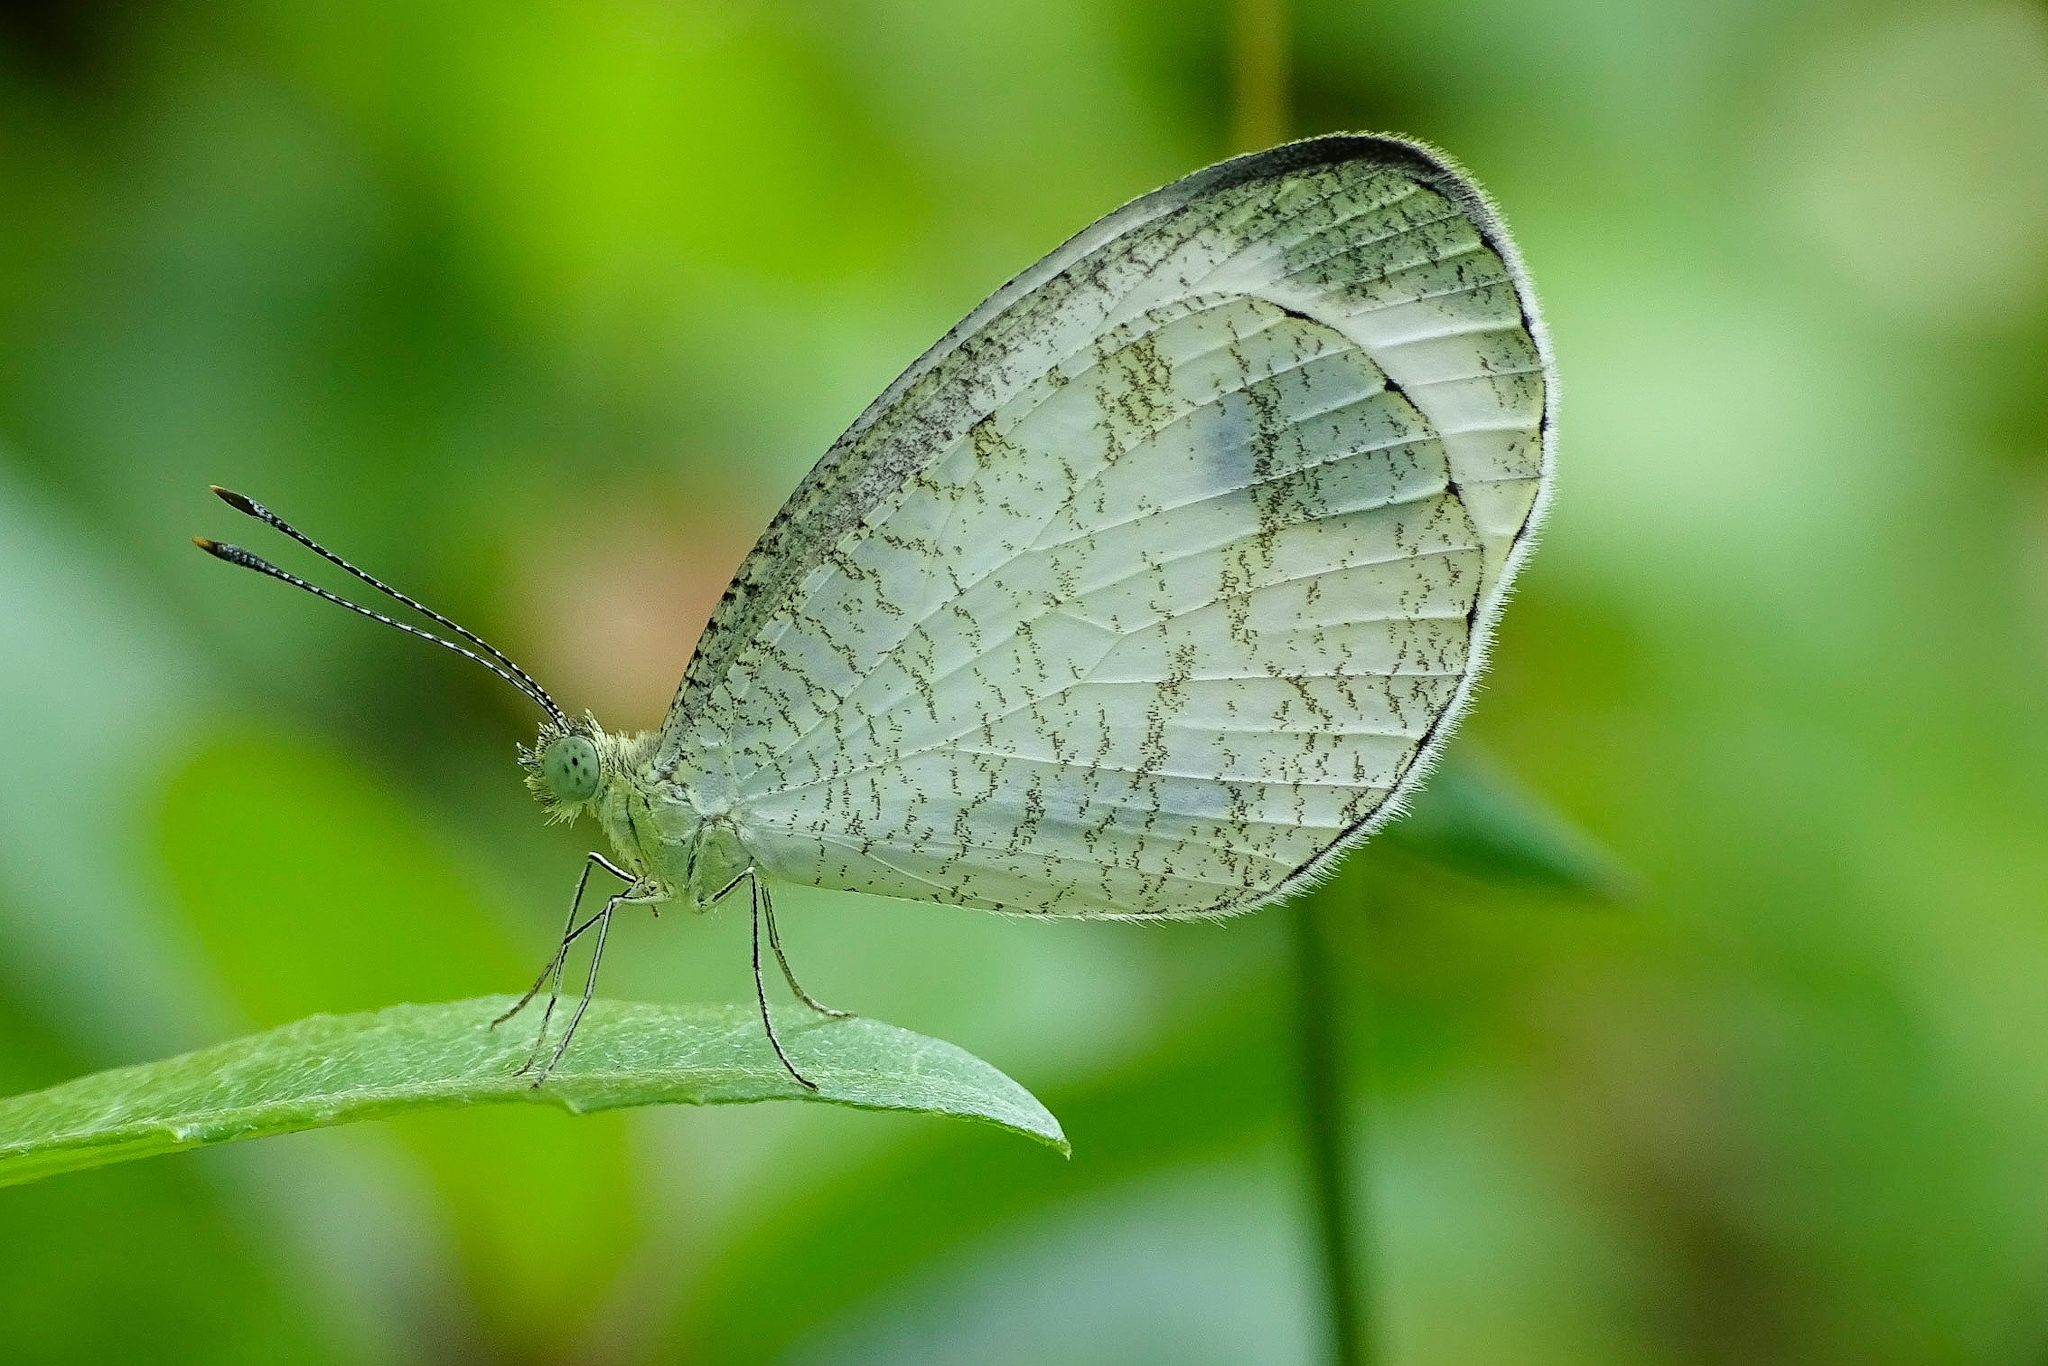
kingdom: Animalia
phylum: Arthropoda
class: Insecta
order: Lepidoptera
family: Pieridae
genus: Leptosia
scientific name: Leptosia nina
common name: Psyche
